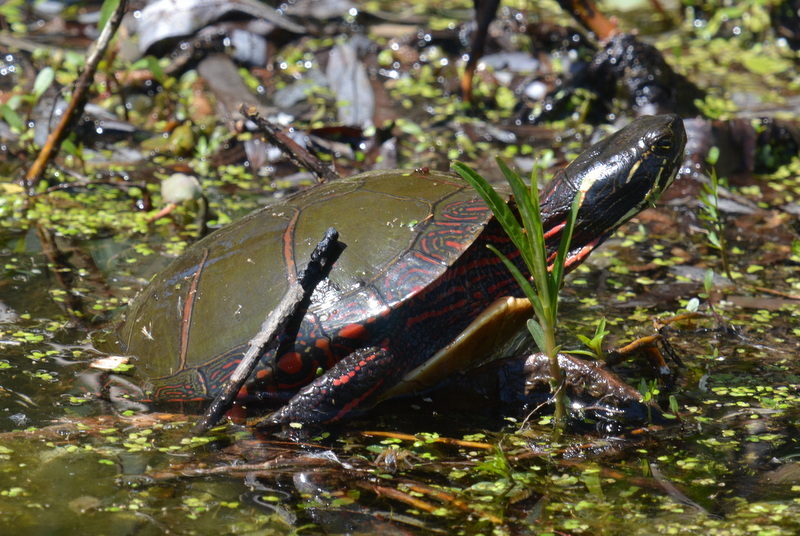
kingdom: Animalia
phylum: Chordata
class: Testudines
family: Emydidae
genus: Chrysemys
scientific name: Chrysemys picta
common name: Painted turtle
